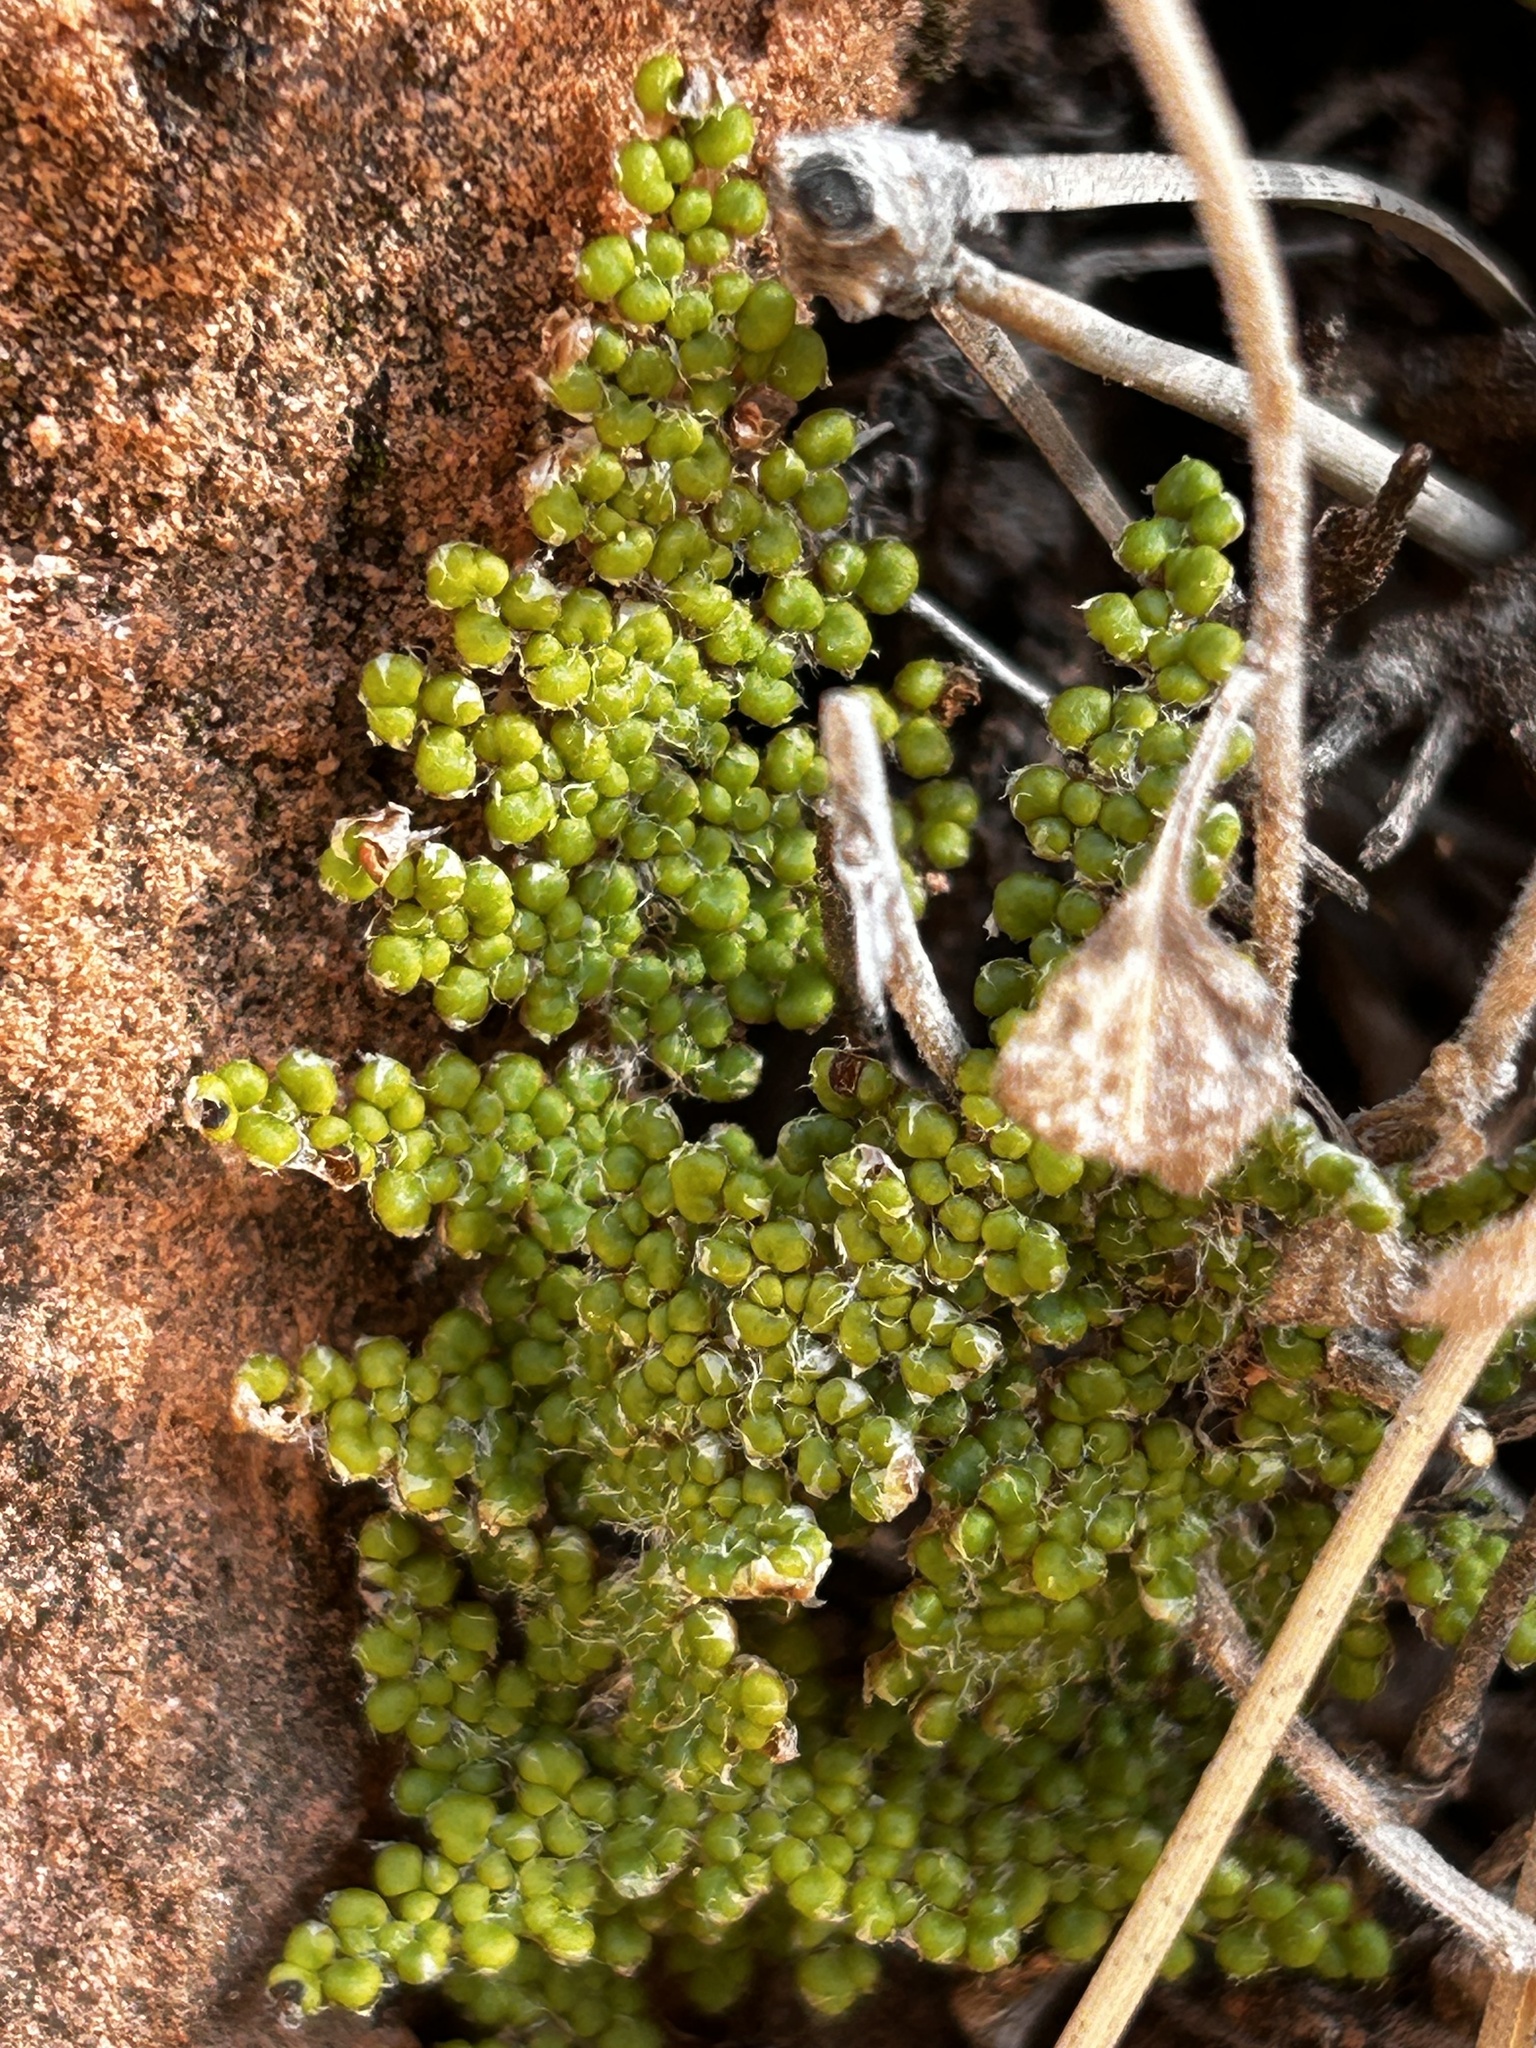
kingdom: Plantae
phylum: Tracheophyta
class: Polypodiopsida
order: Polypodiales
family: Pteridaceae
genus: Myriopteris
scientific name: Myriopteris covillei
